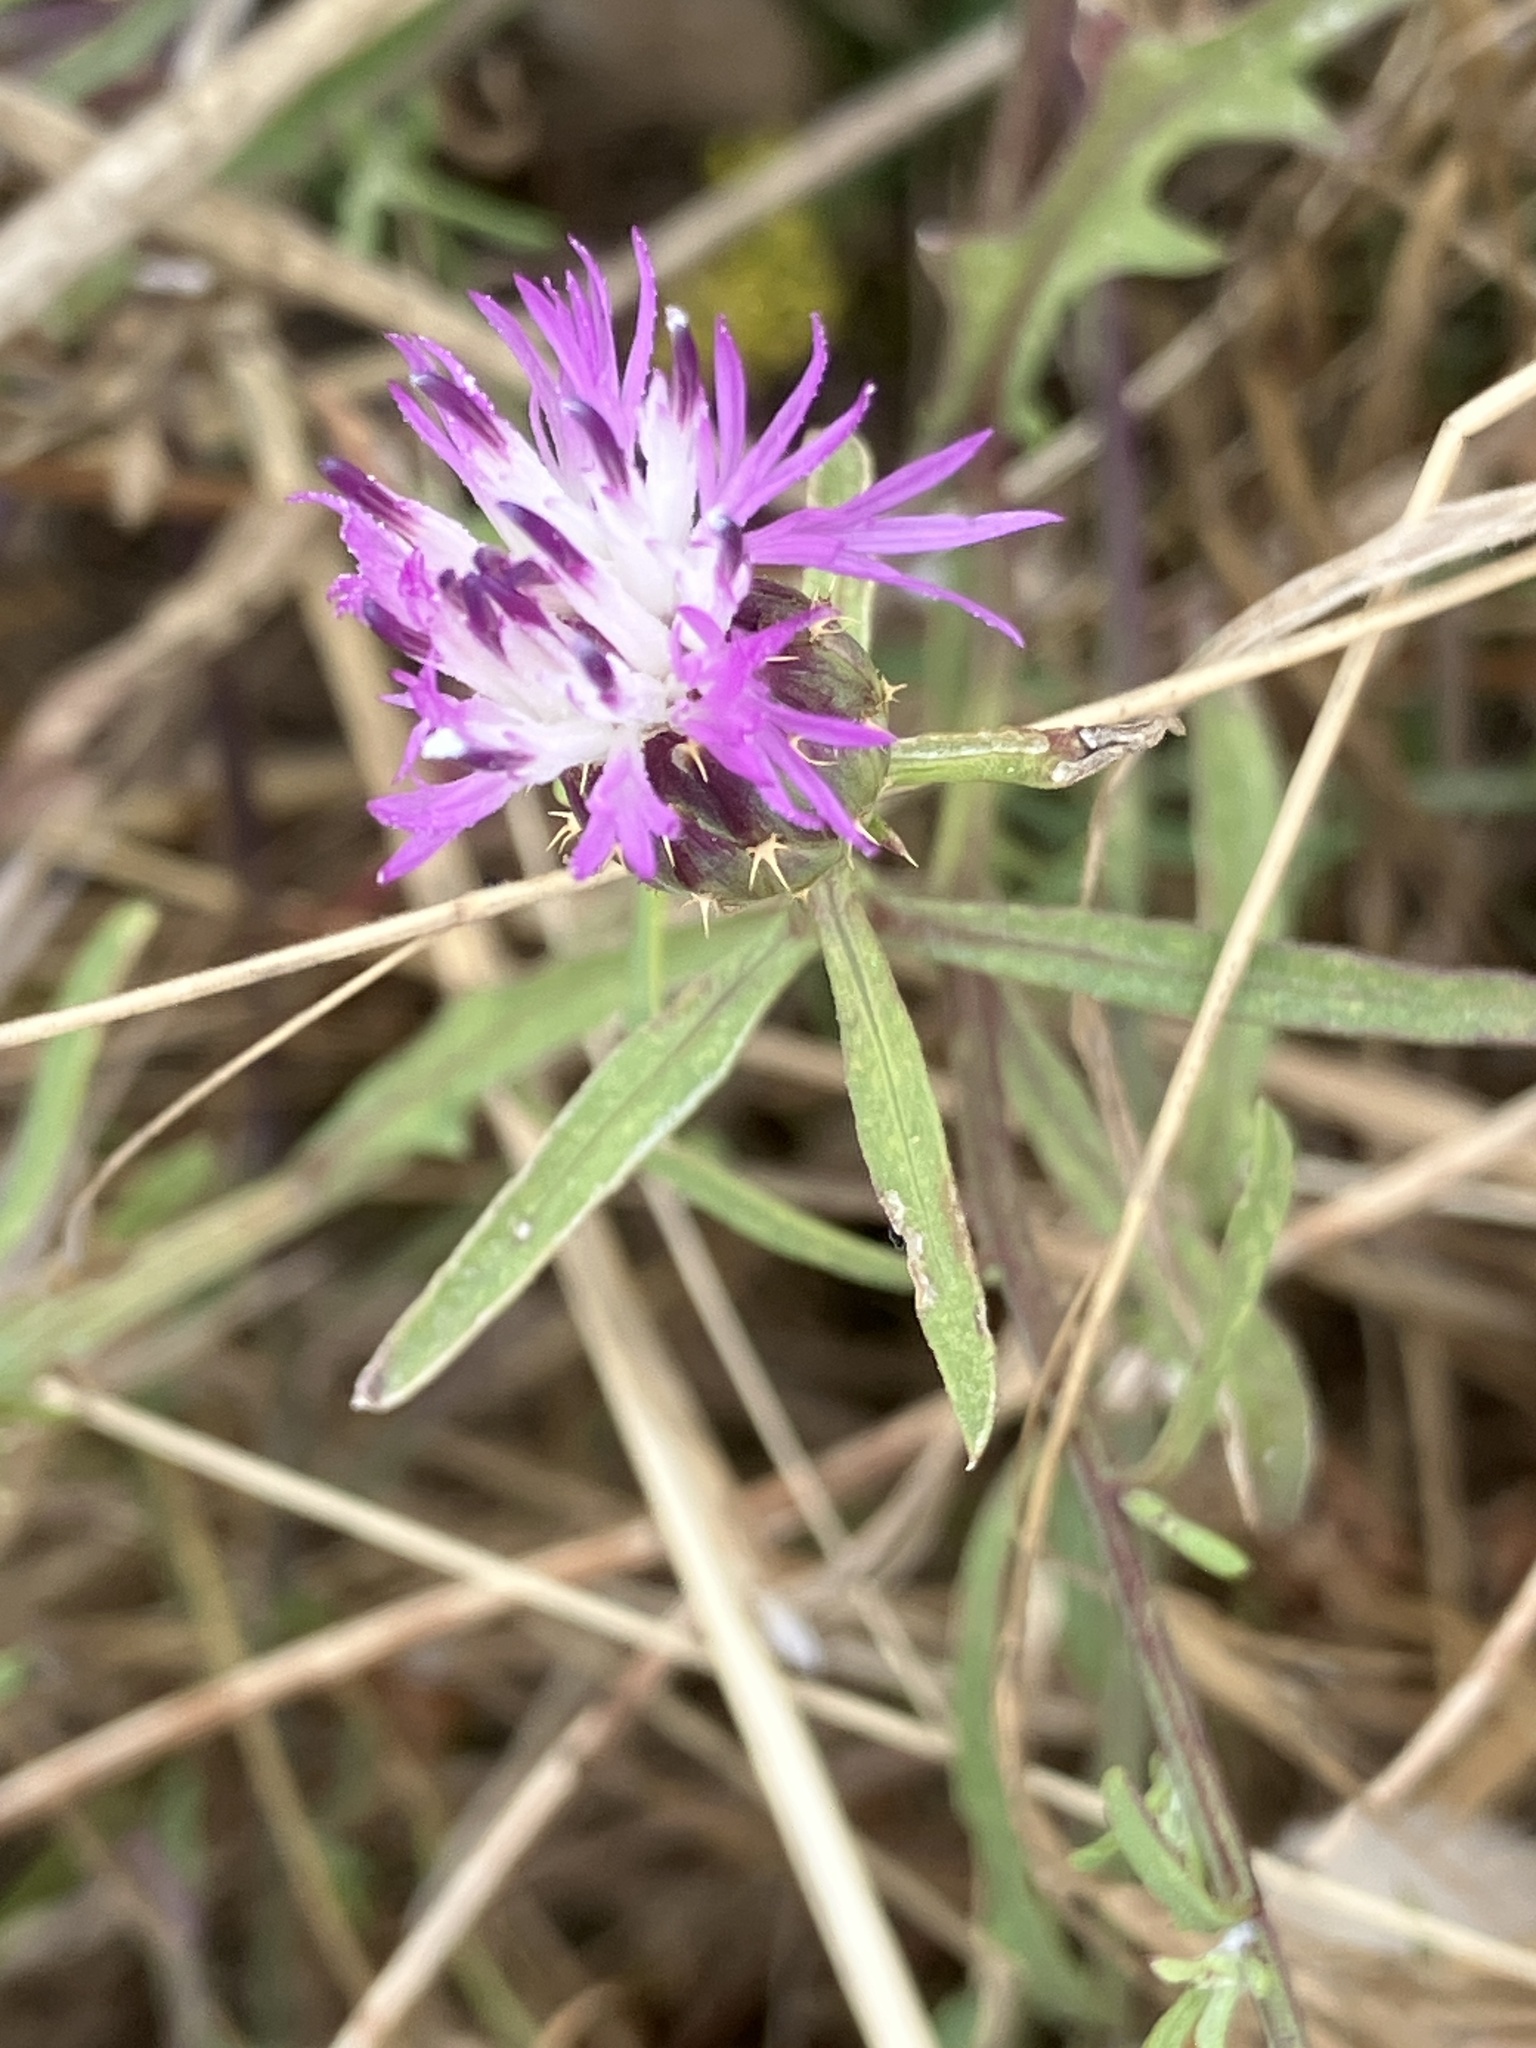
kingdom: Plantae
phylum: Tracheophyta
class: Magnoliopsida
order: Asterales
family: Asteraceae
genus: Centaurea
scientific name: Centaurea aspera
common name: Rough star-thistle
